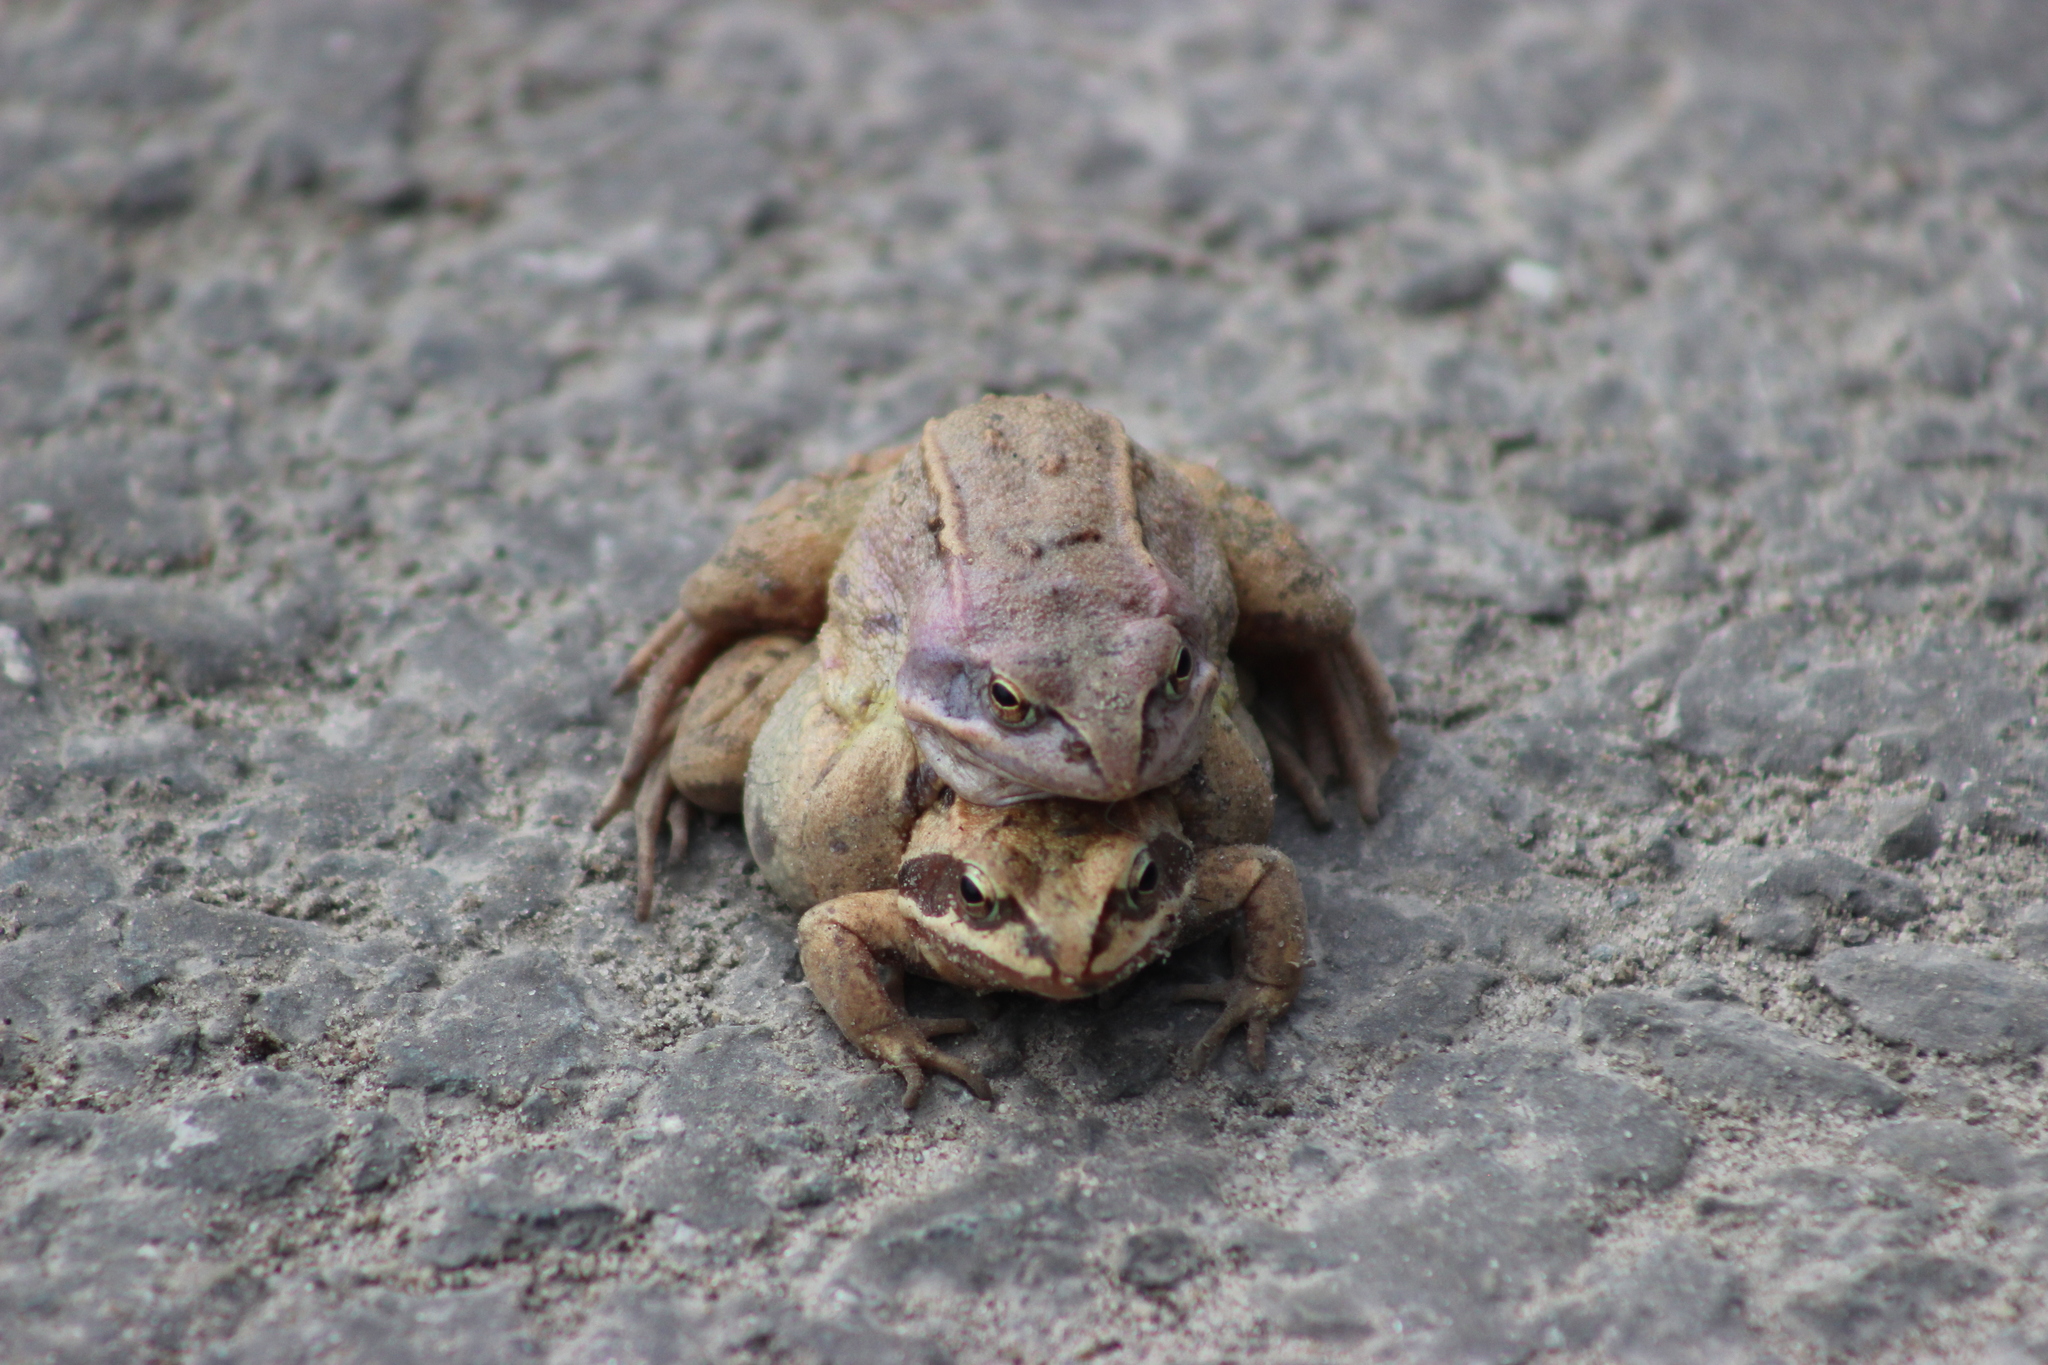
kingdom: Animalia
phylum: Chordata
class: Amphibia
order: Anura
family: Ranidae
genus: Rana
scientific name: Rana arvalis
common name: Moor frog
